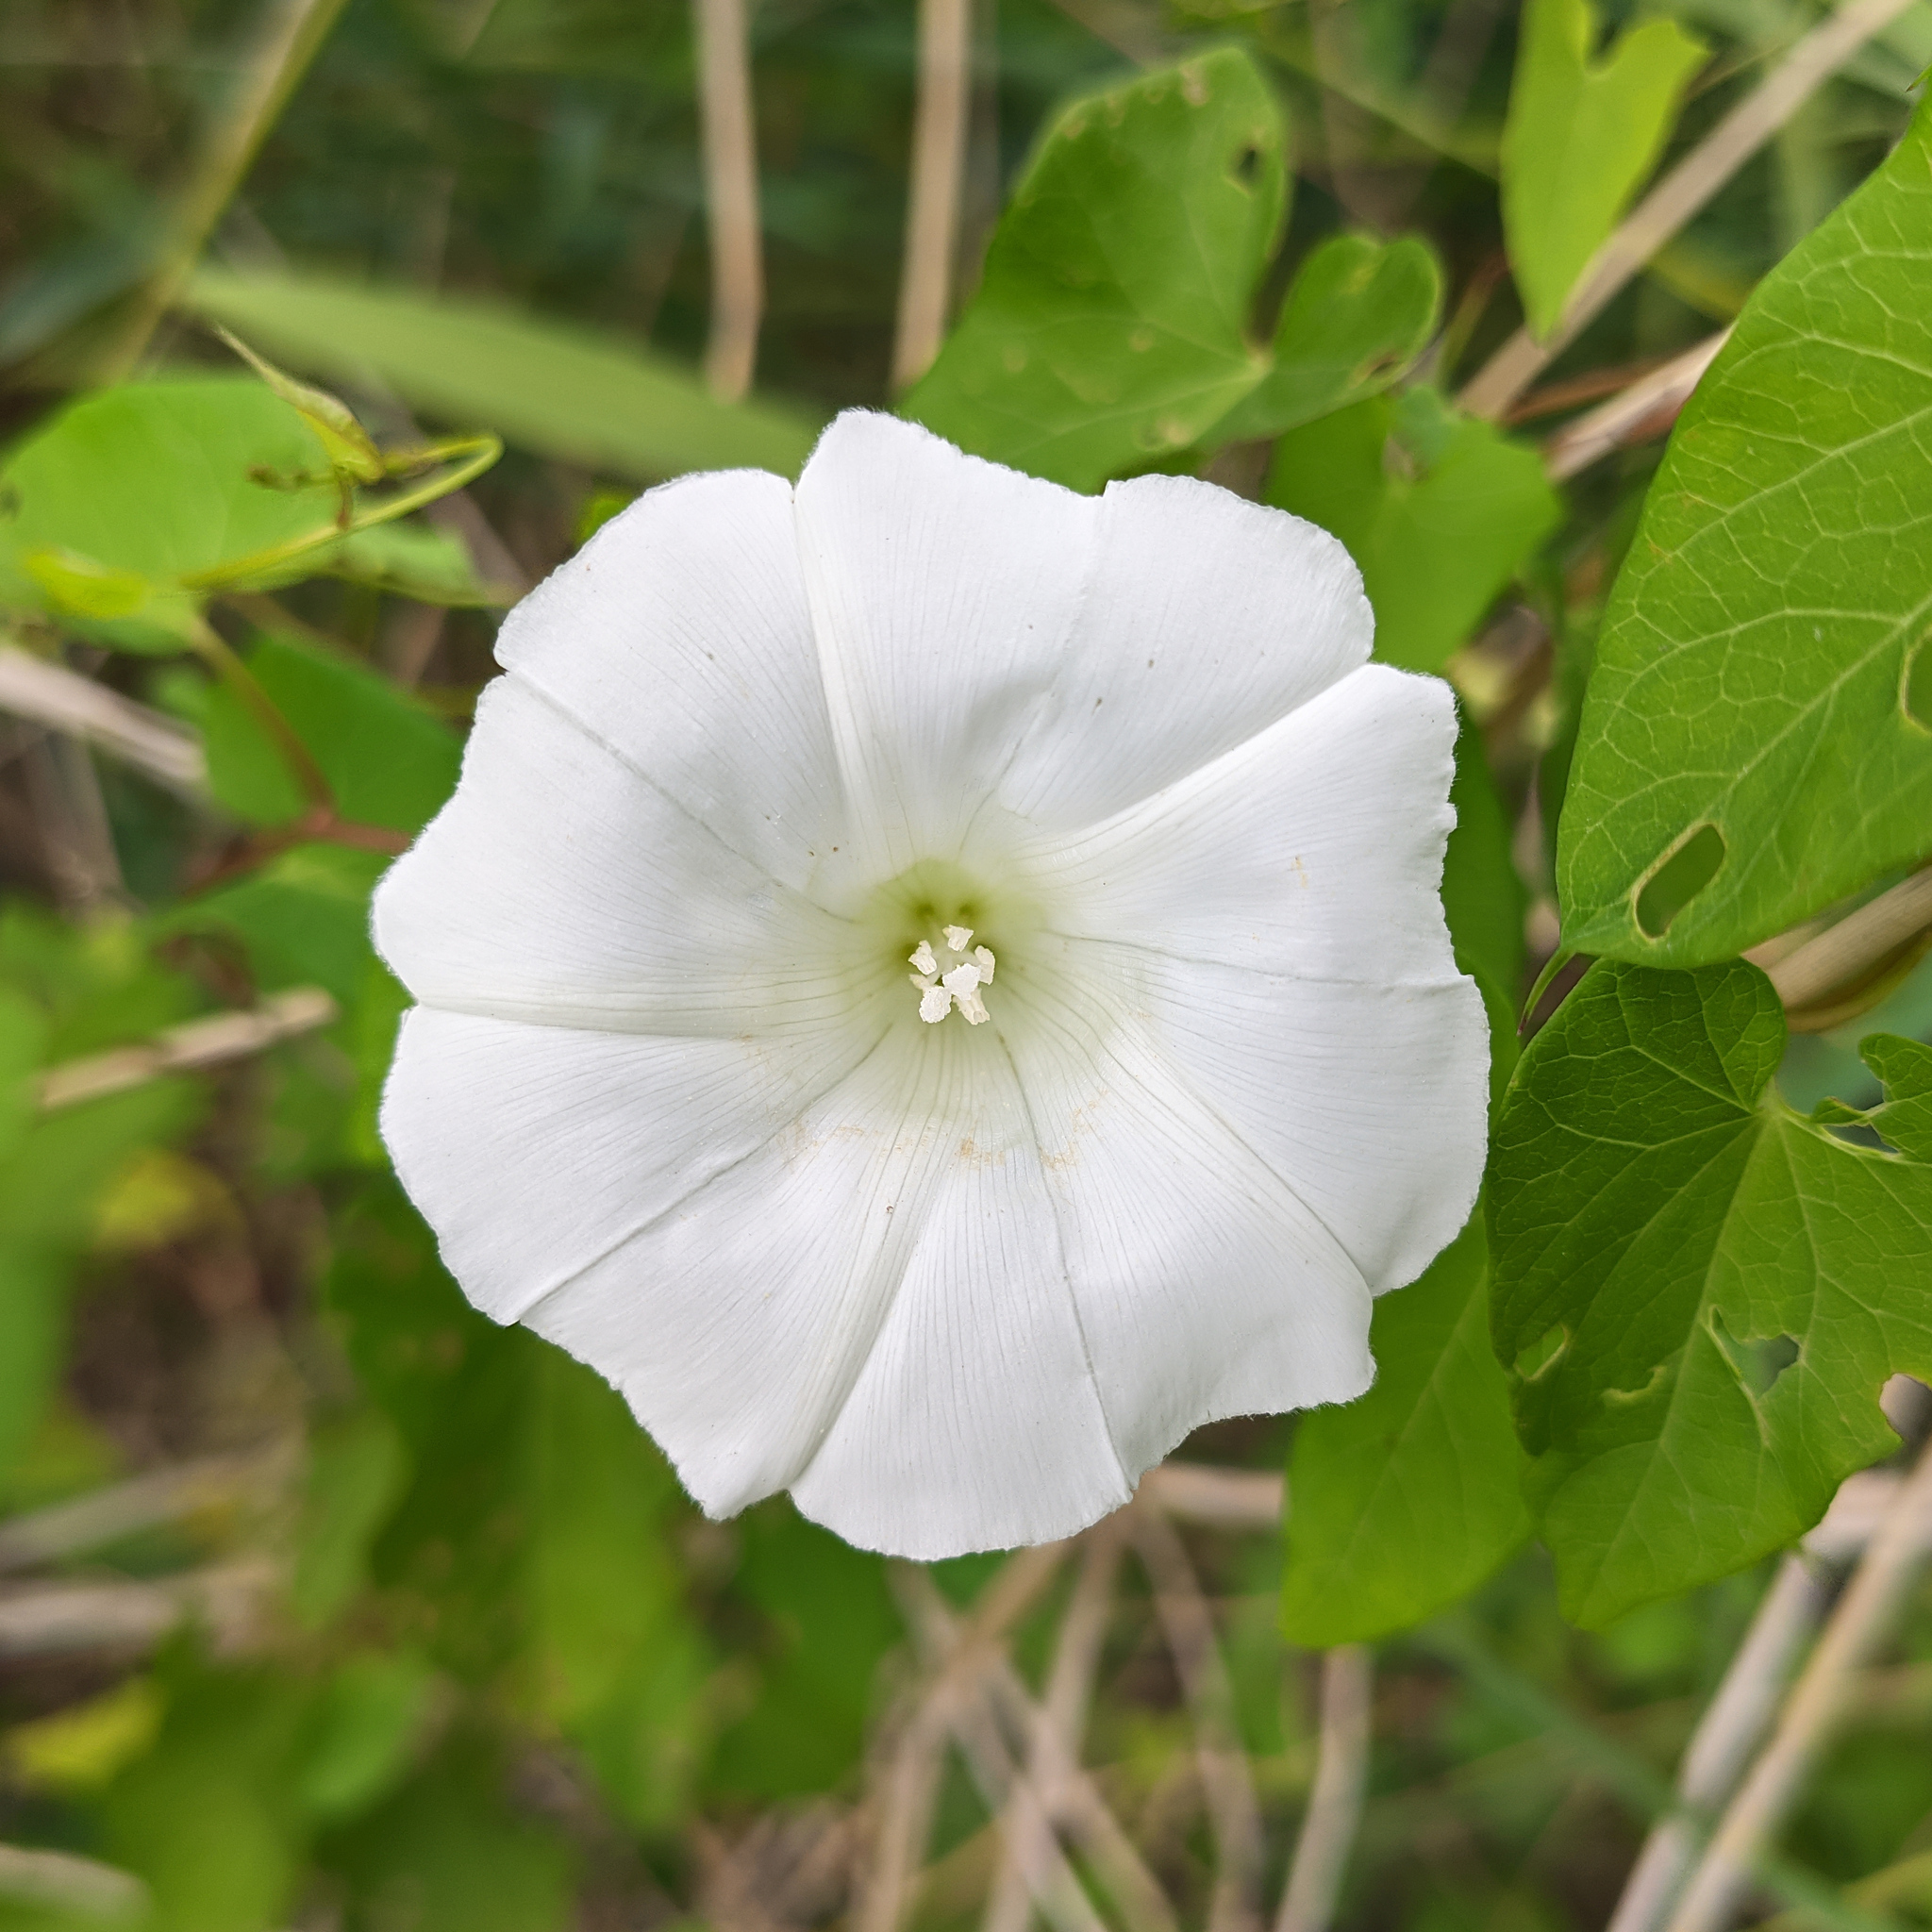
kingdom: Plantae
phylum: Tracheophyta
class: Magnoliopsida
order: Solanales
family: Convolvulaceae
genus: Calystegia
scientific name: Calystegia sepium
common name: Hedge bindweed
